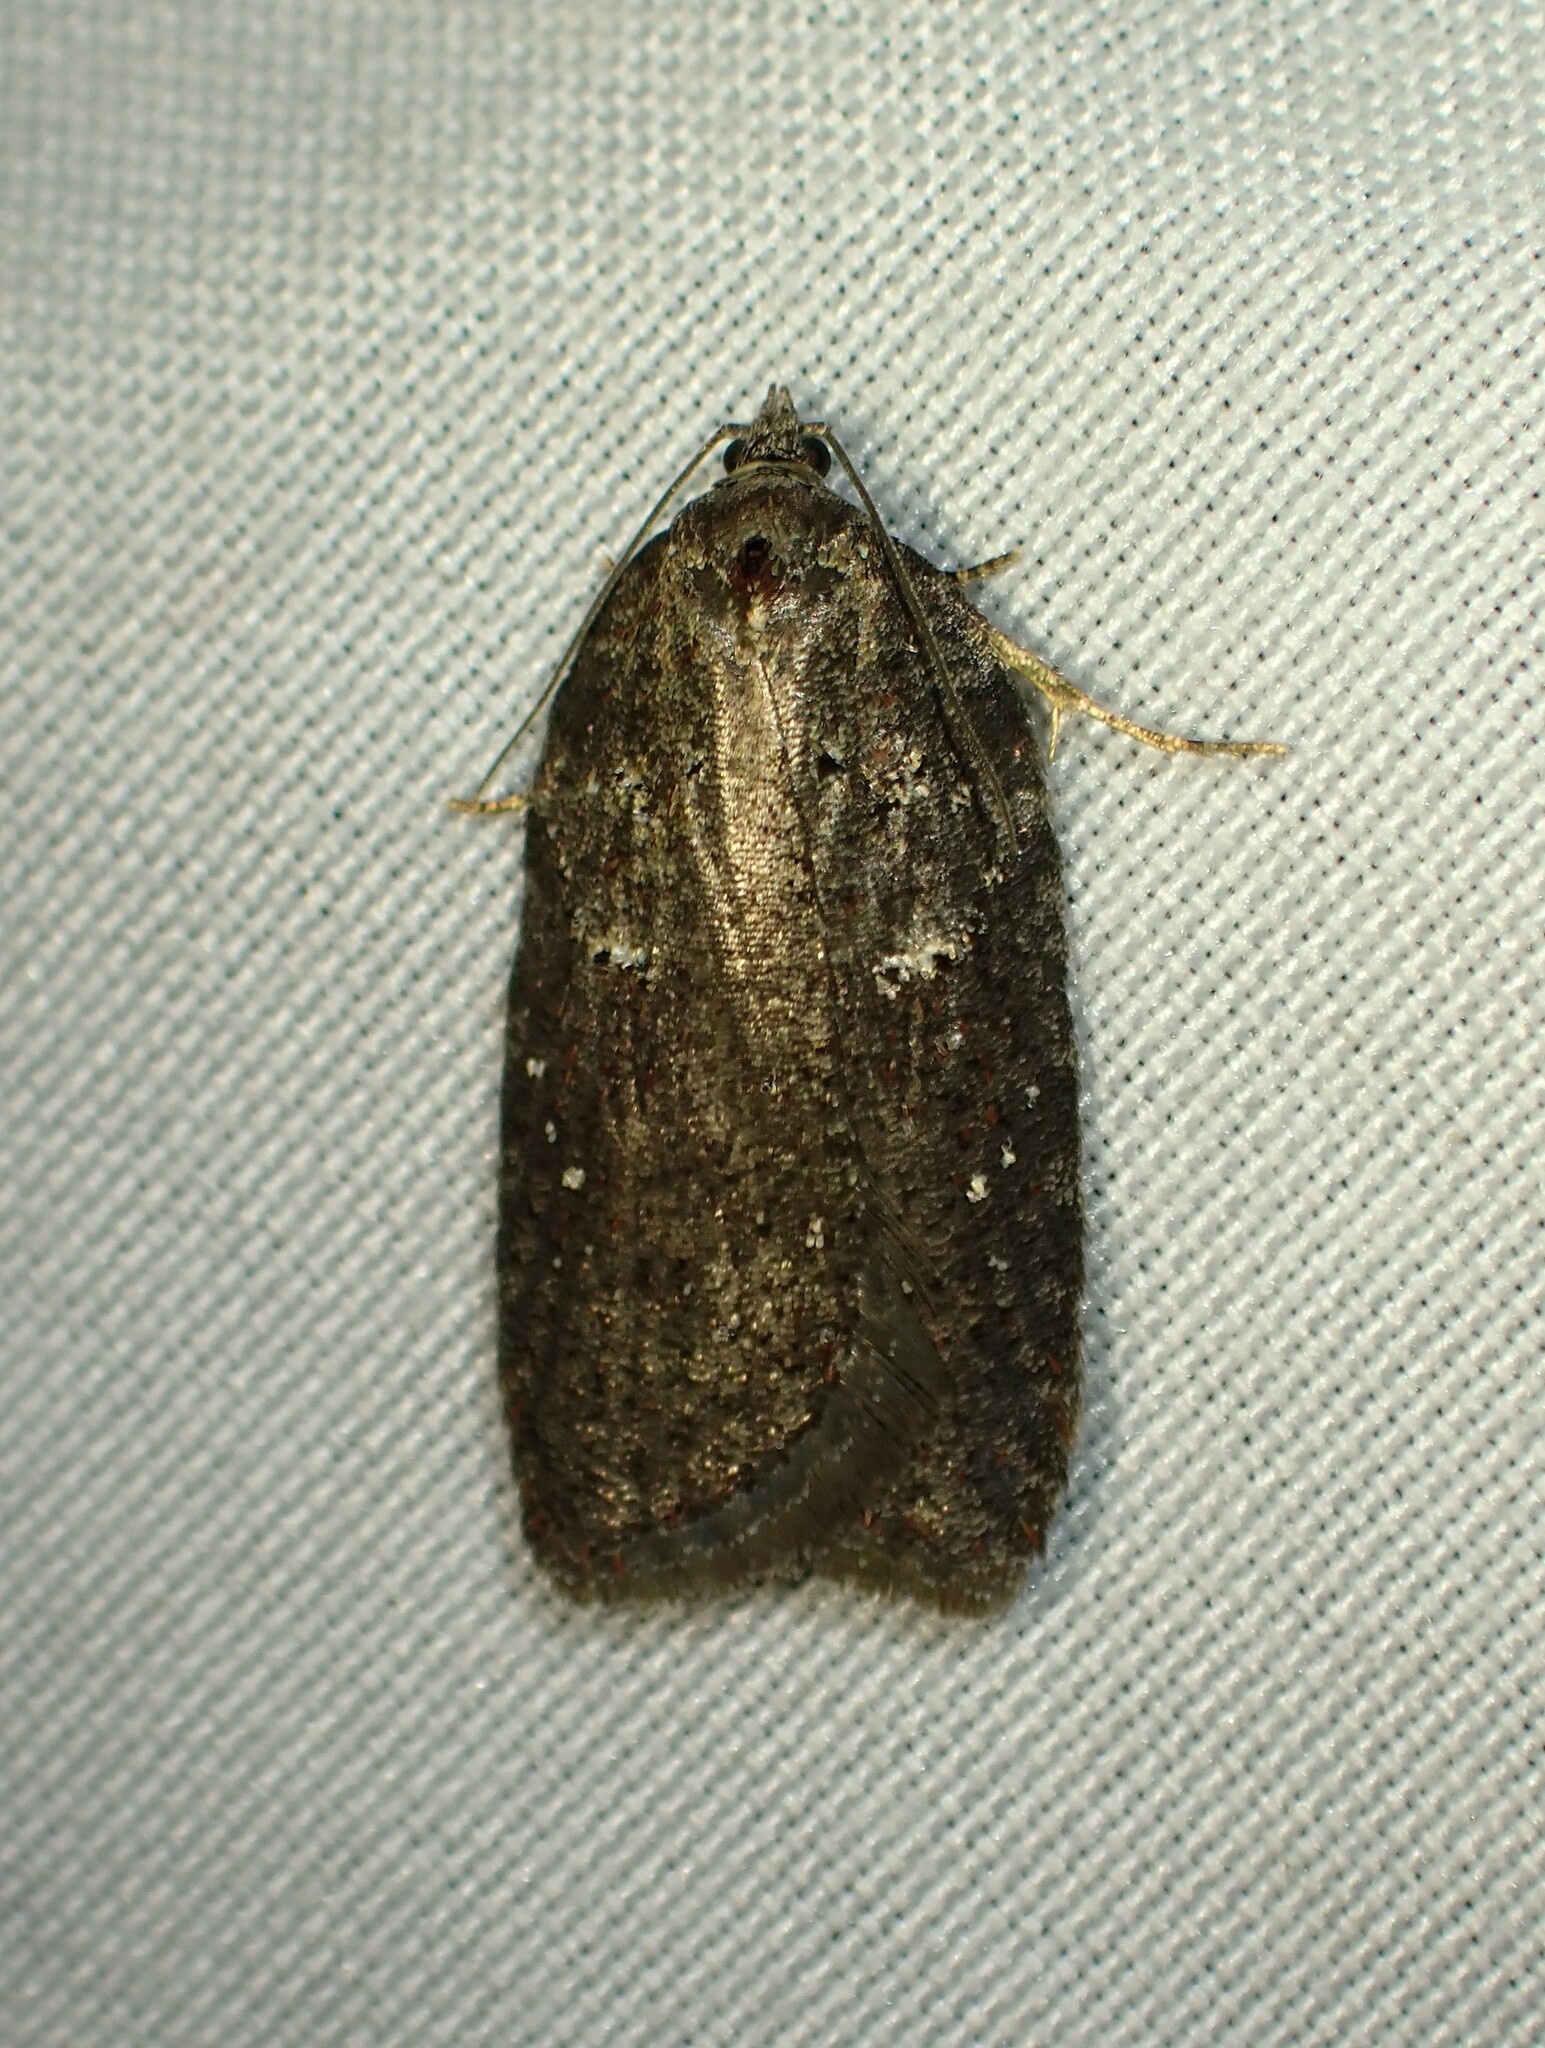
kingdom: Animalia
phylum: Arthropoda
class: Insecta
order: Lepidoptera
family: Tortricidae
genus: Acleris
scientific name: Acleris caliginosana
